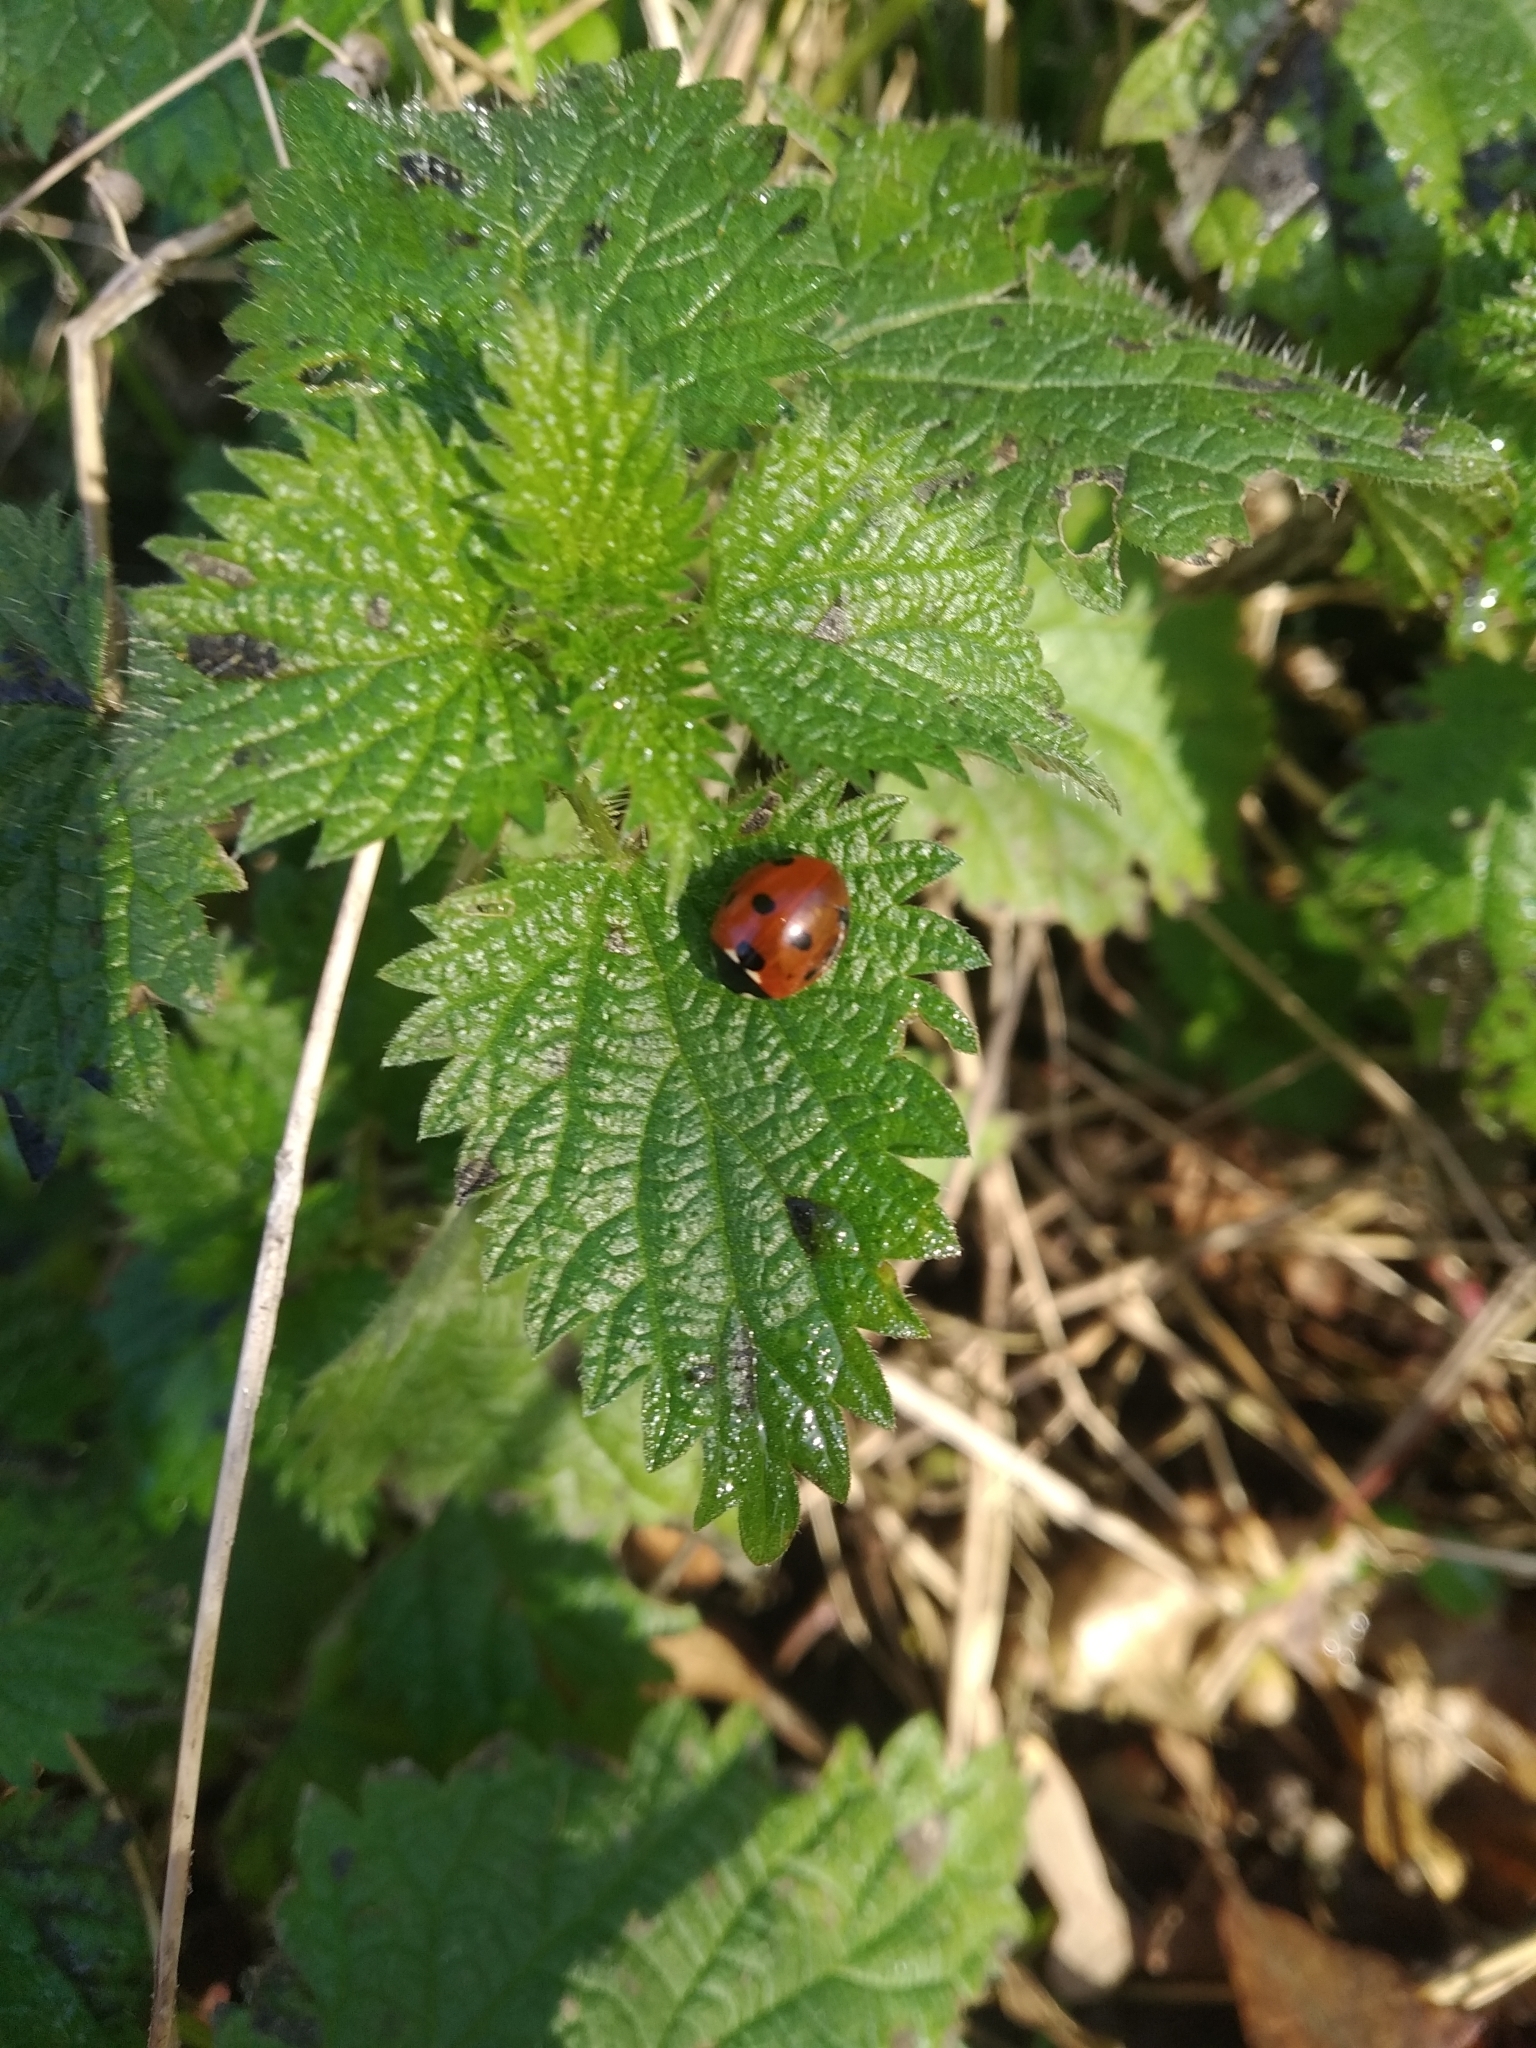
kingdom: Animalia
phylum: Arthropoda
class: Insecta
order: Coleoptera
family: Coccinellidae
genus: Coccinella
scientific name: Coccinella septempunctata
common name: Sevenspotted lady beetle
